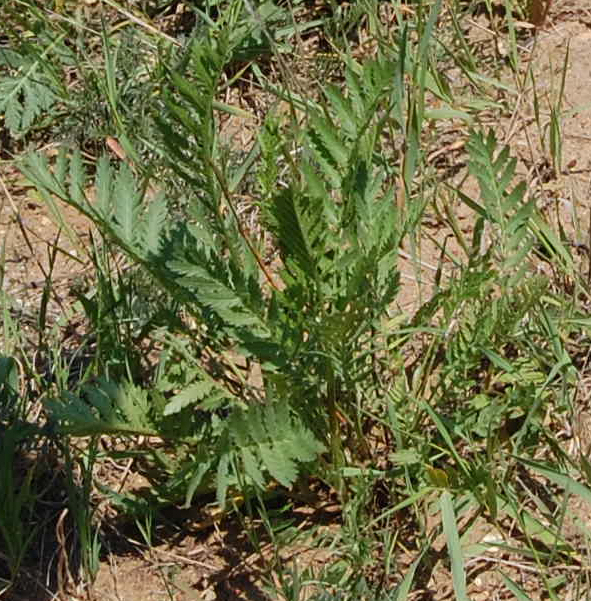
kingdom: Plantae
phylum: Tracheophyta
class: Magnoliopsida
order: Asterales
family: Asteraceae
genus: Tanacetum
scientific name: Tanacetum vulgare
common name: Common tansy
